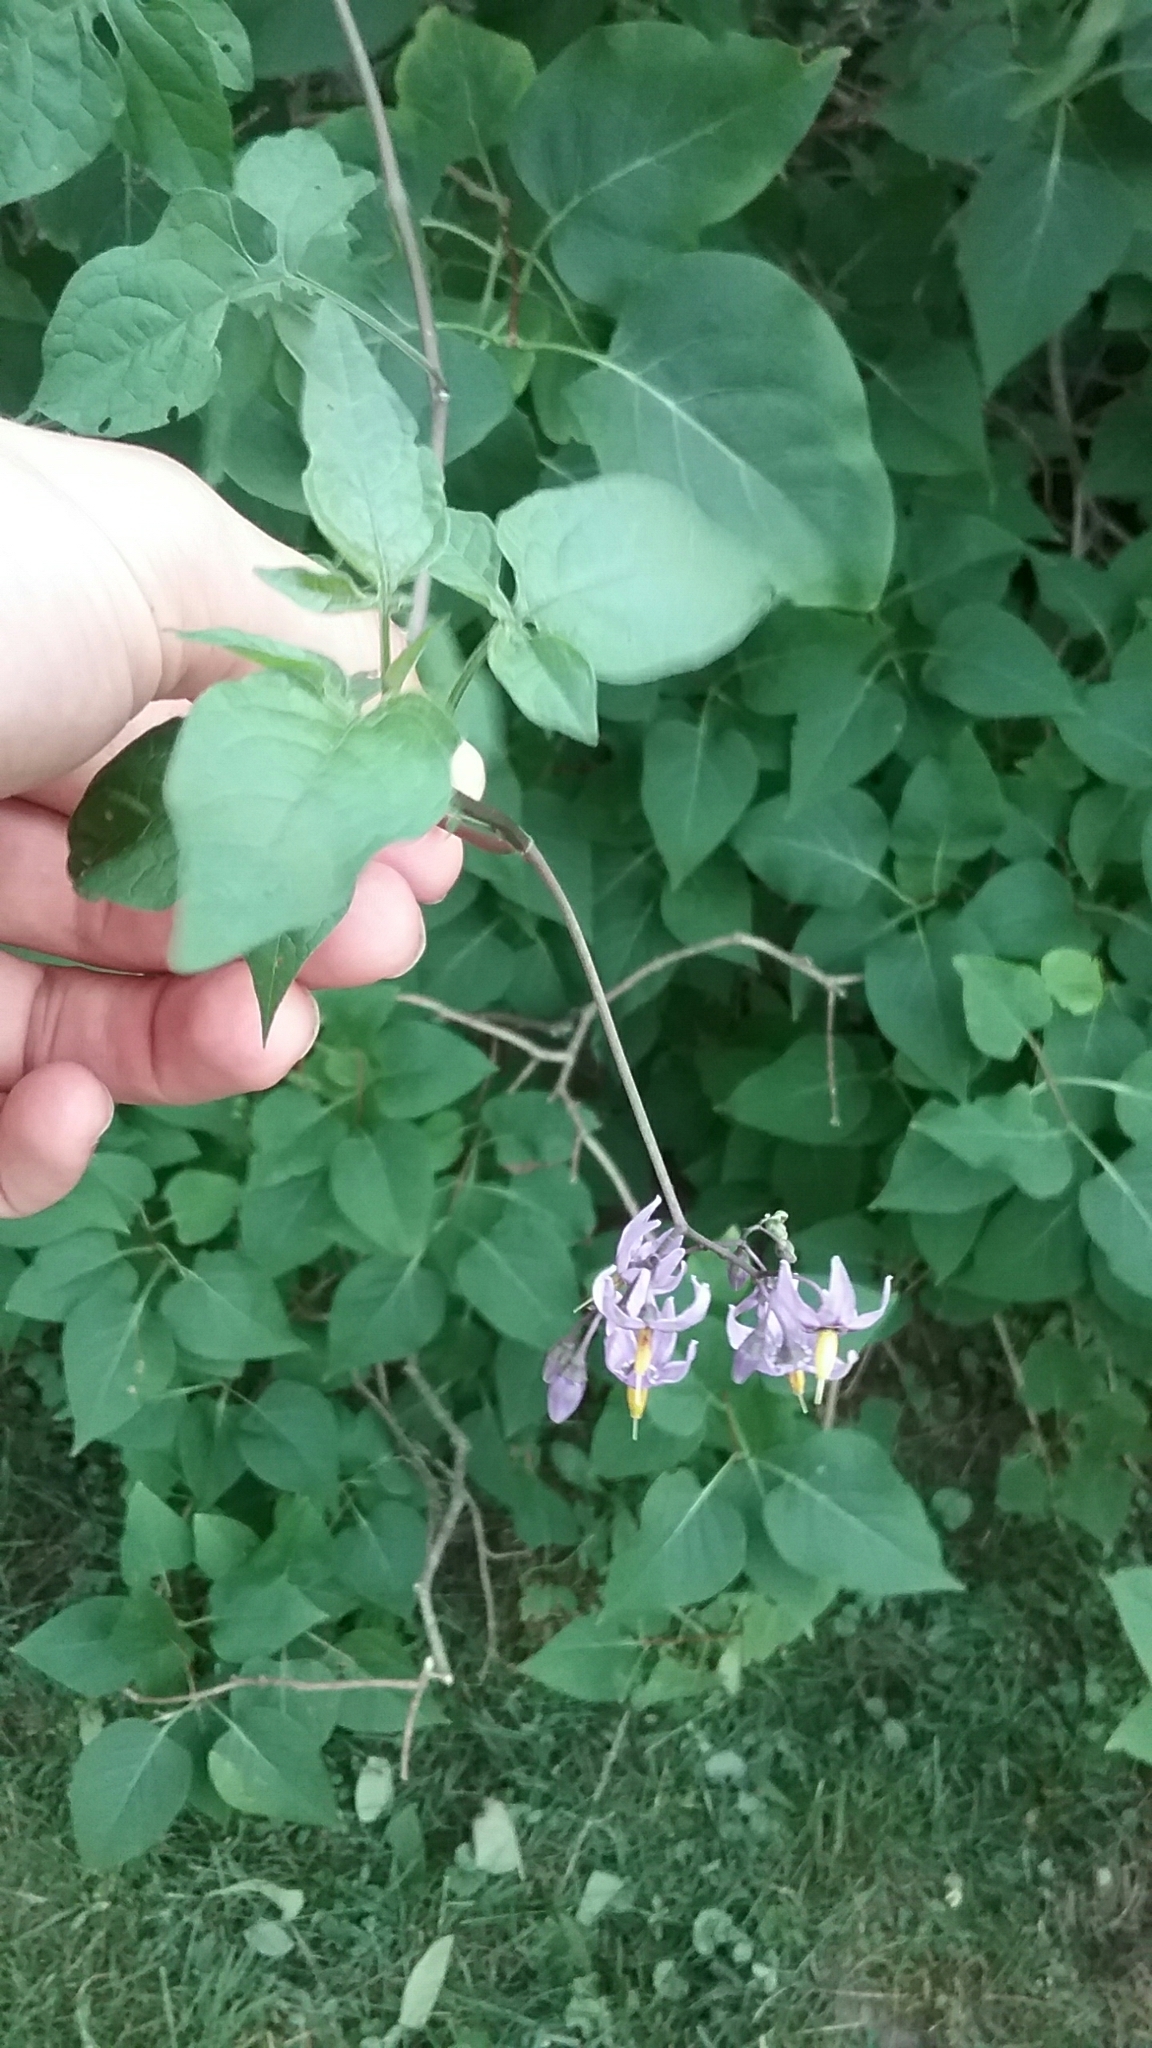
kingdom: Plantae
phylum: Tracheophyta
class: Magnoliopsida
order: Solanales
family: Solanaceae
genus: Solanum
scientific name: Solanum dulcamara
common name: Climbing nightshade
